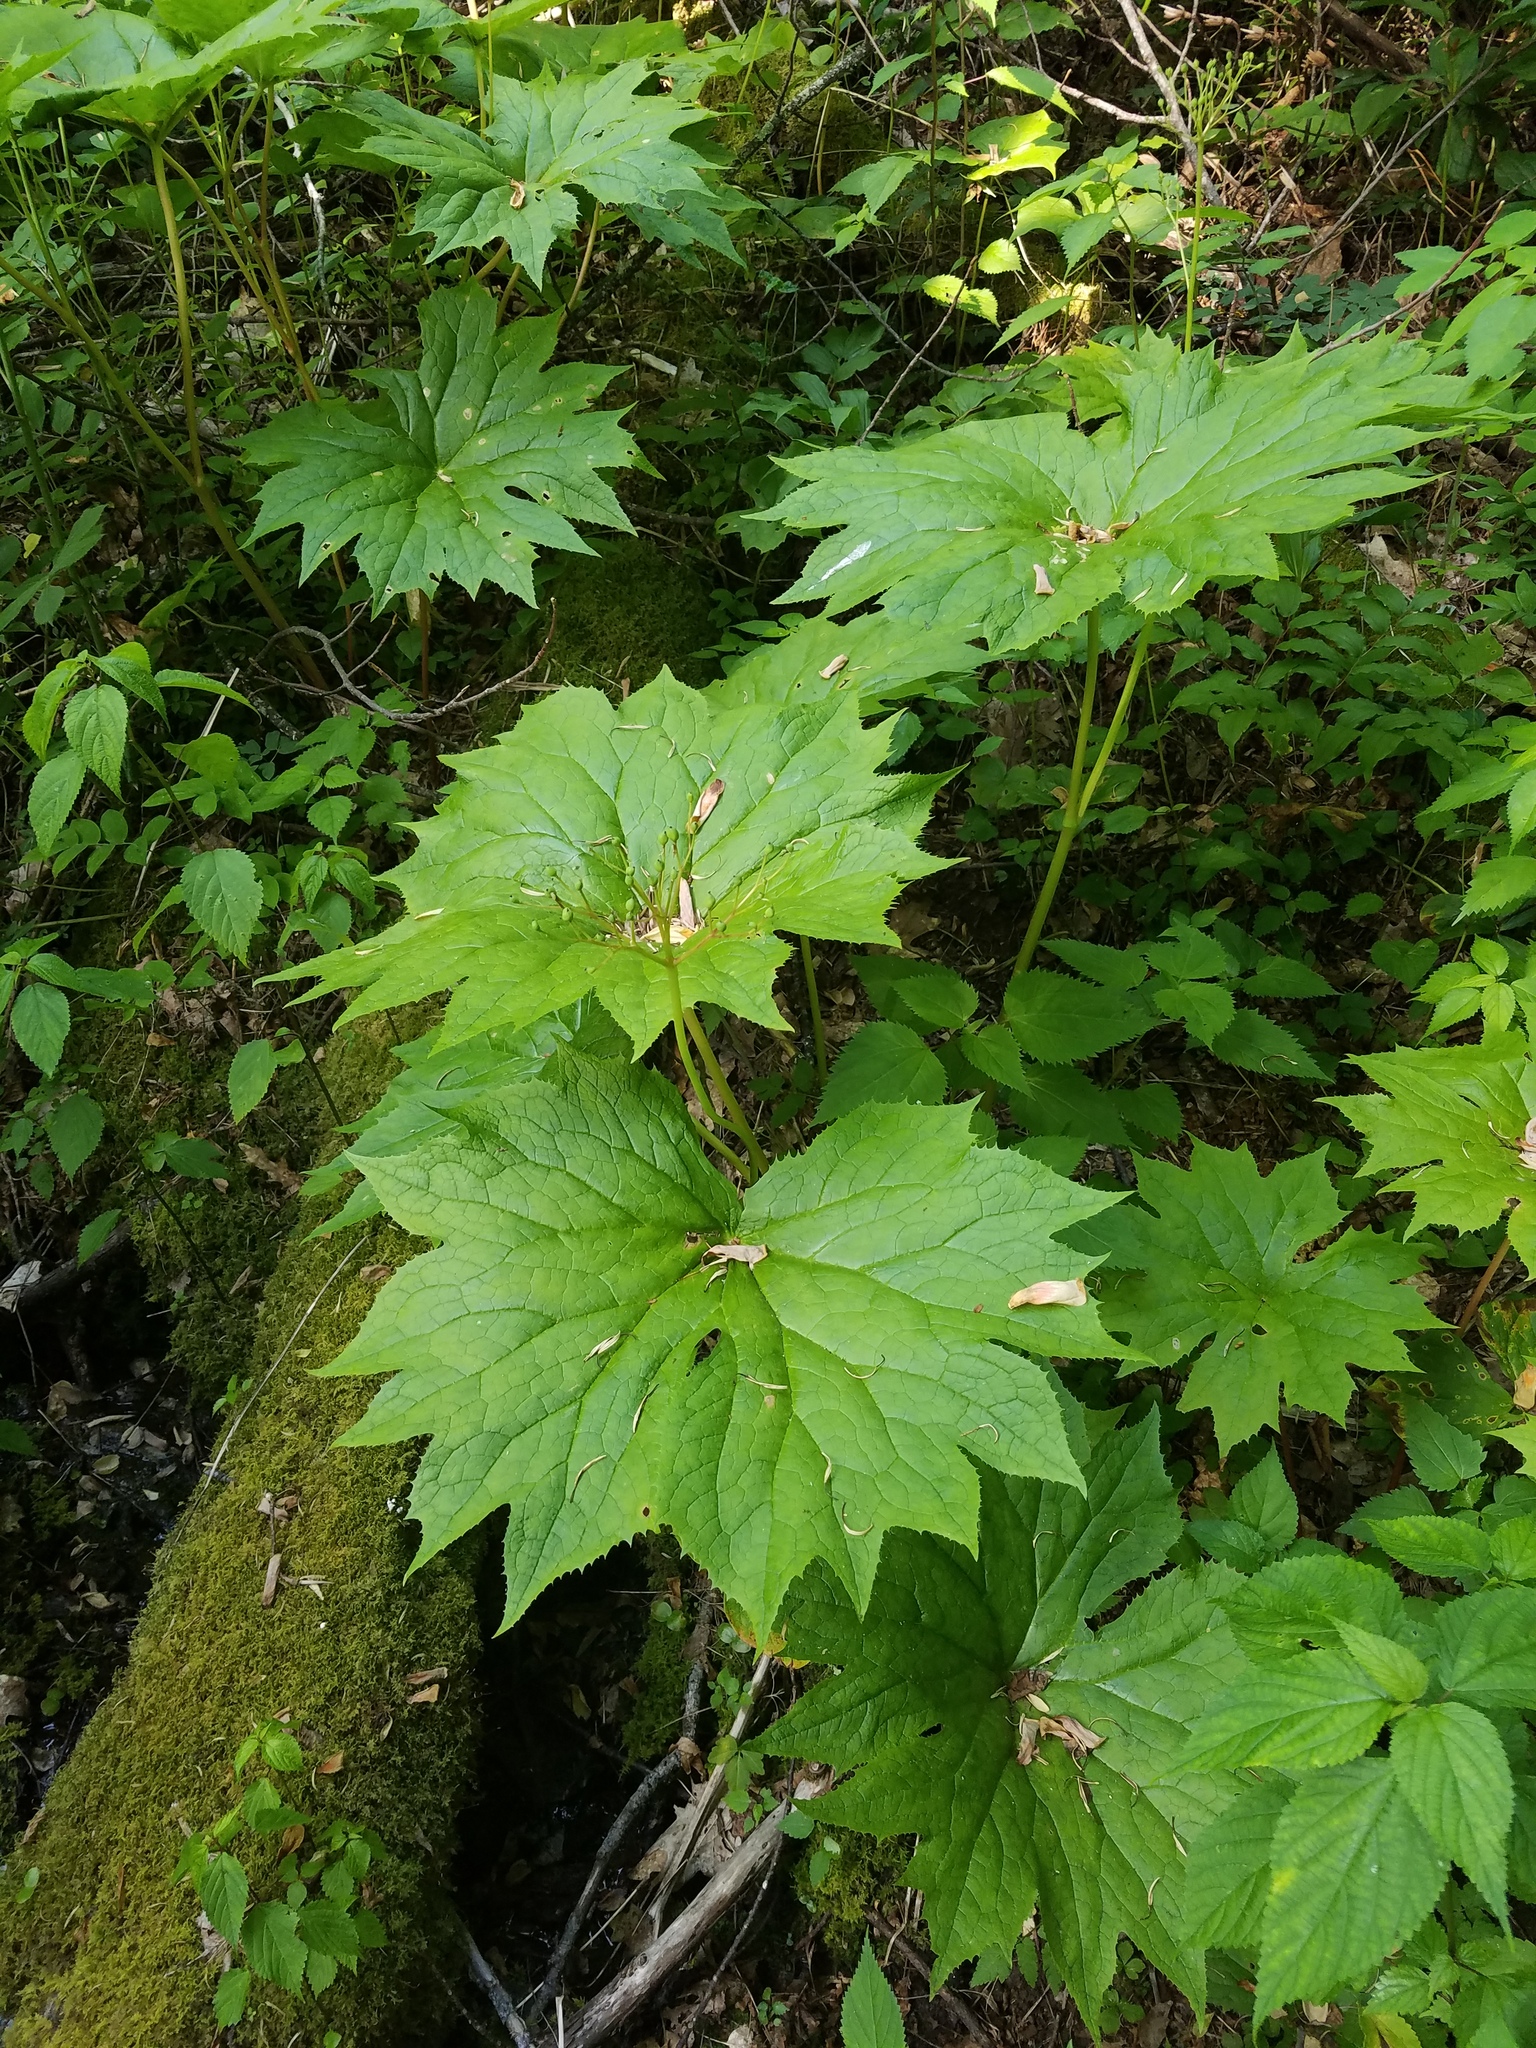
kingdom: Plantae
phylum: Tracheophyta
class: Magnoliopsida
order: Ranunculales
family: Berberidaceae
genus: Diphylleia
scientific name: Diphylleia cymosa
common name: Umbrella-leaf
